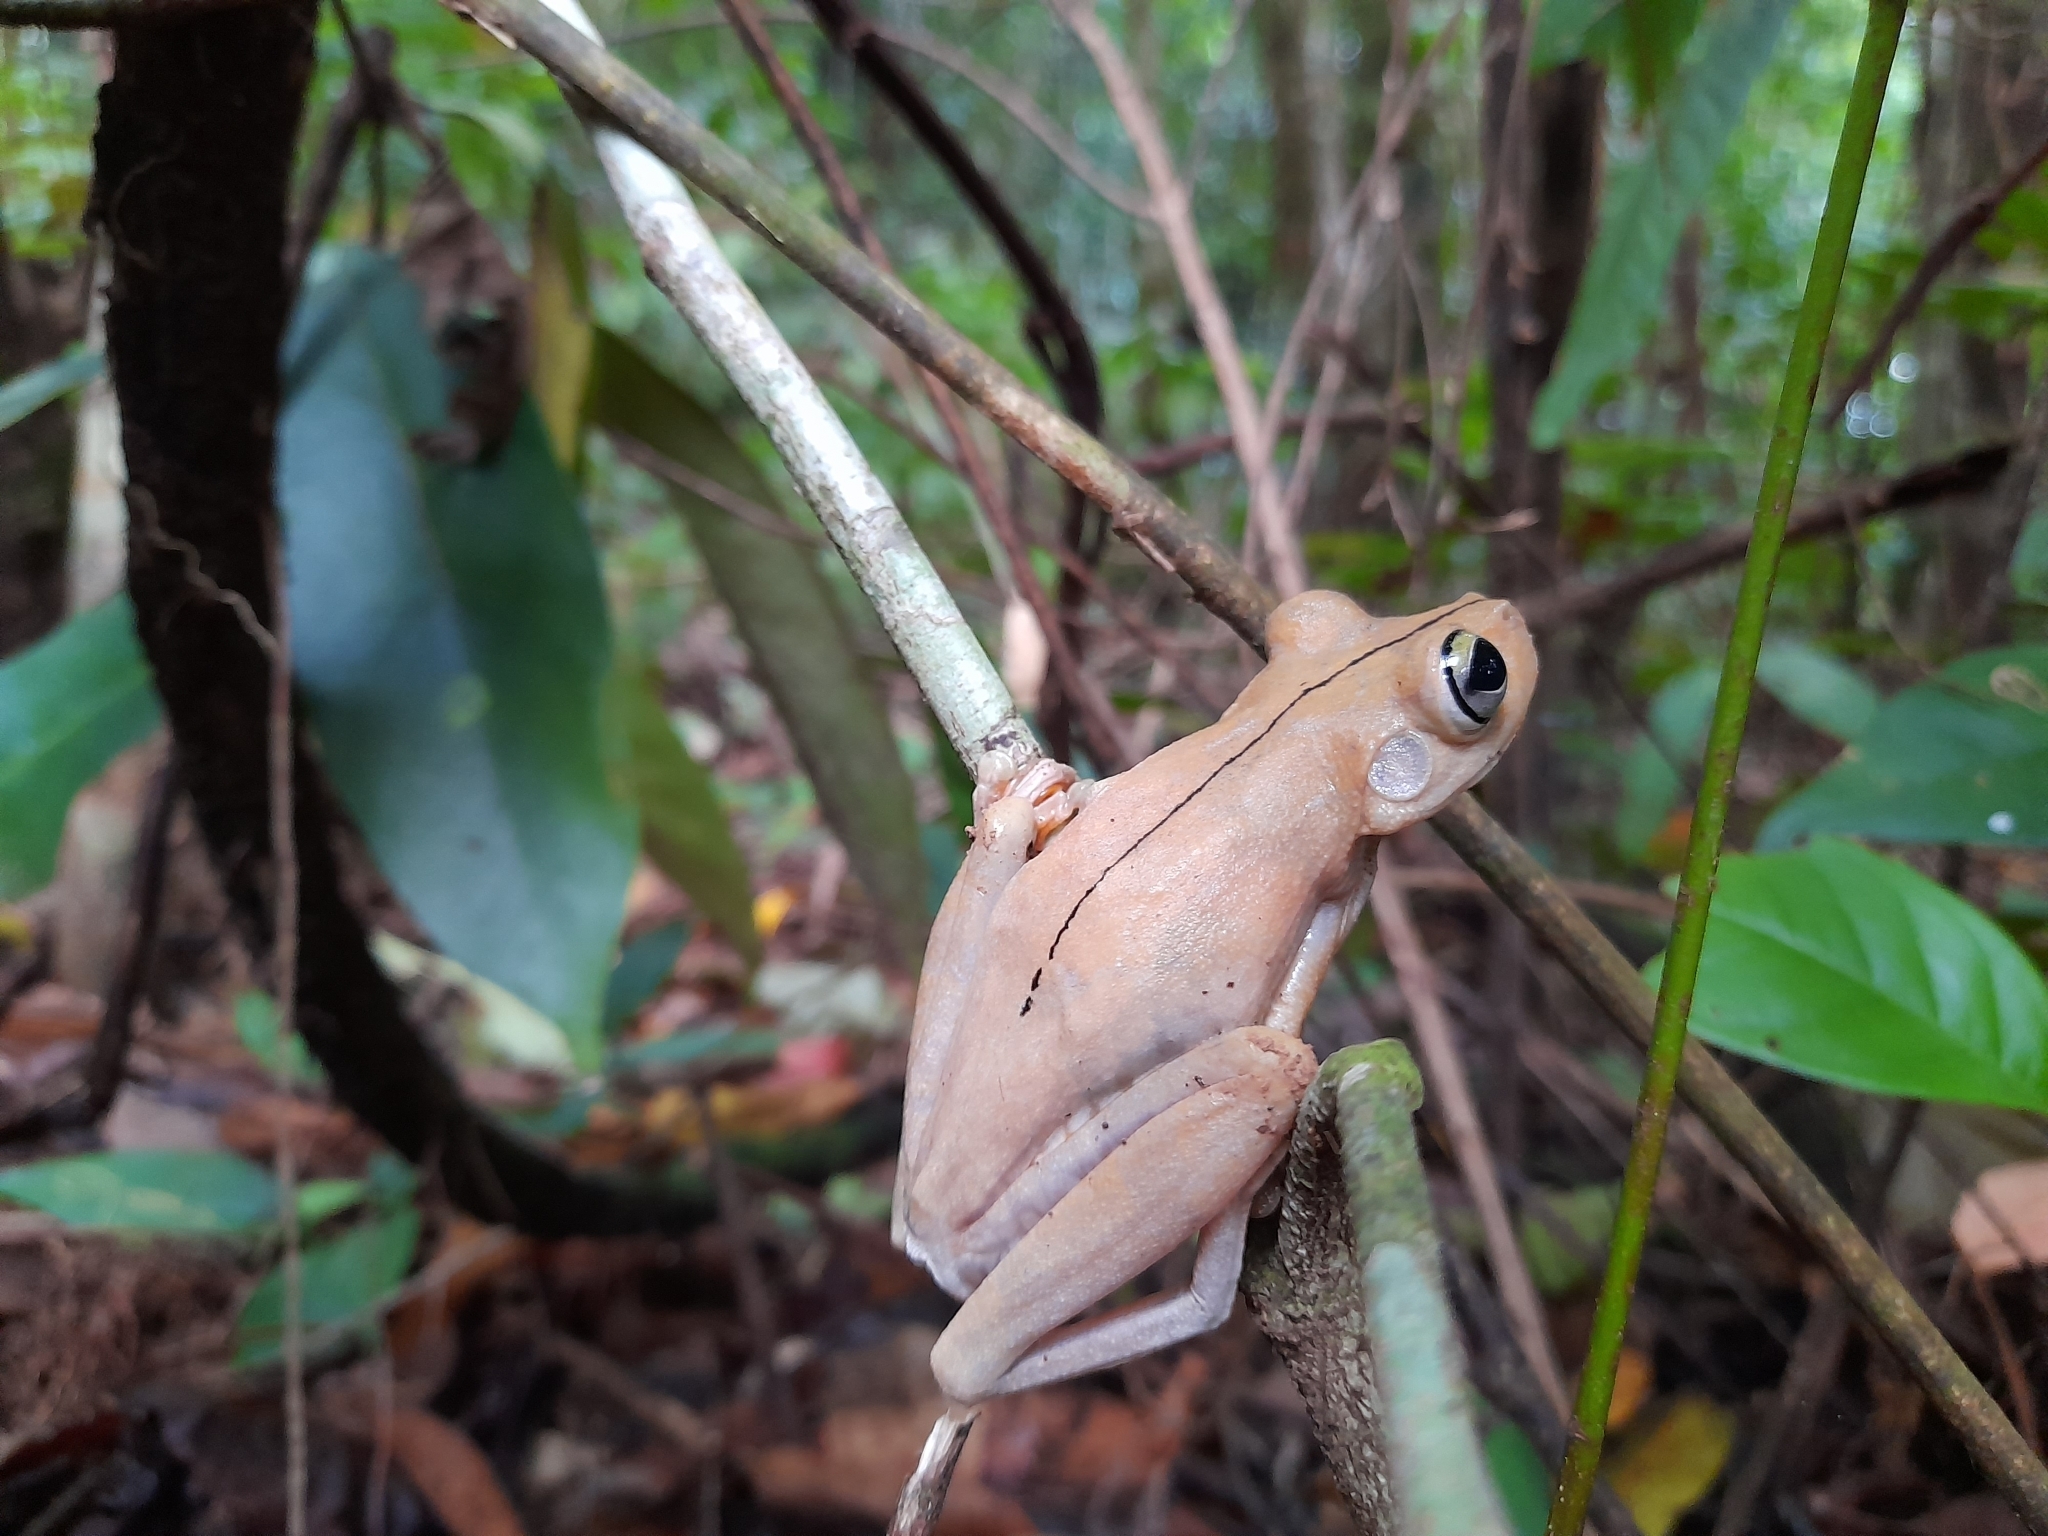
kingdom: Animalia
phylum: Chordata
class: Amphibia
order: Anura
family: Hylidae
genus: Boana
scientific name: Boana rosenbergi
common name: Rosenberg´s gladiator treefrog
